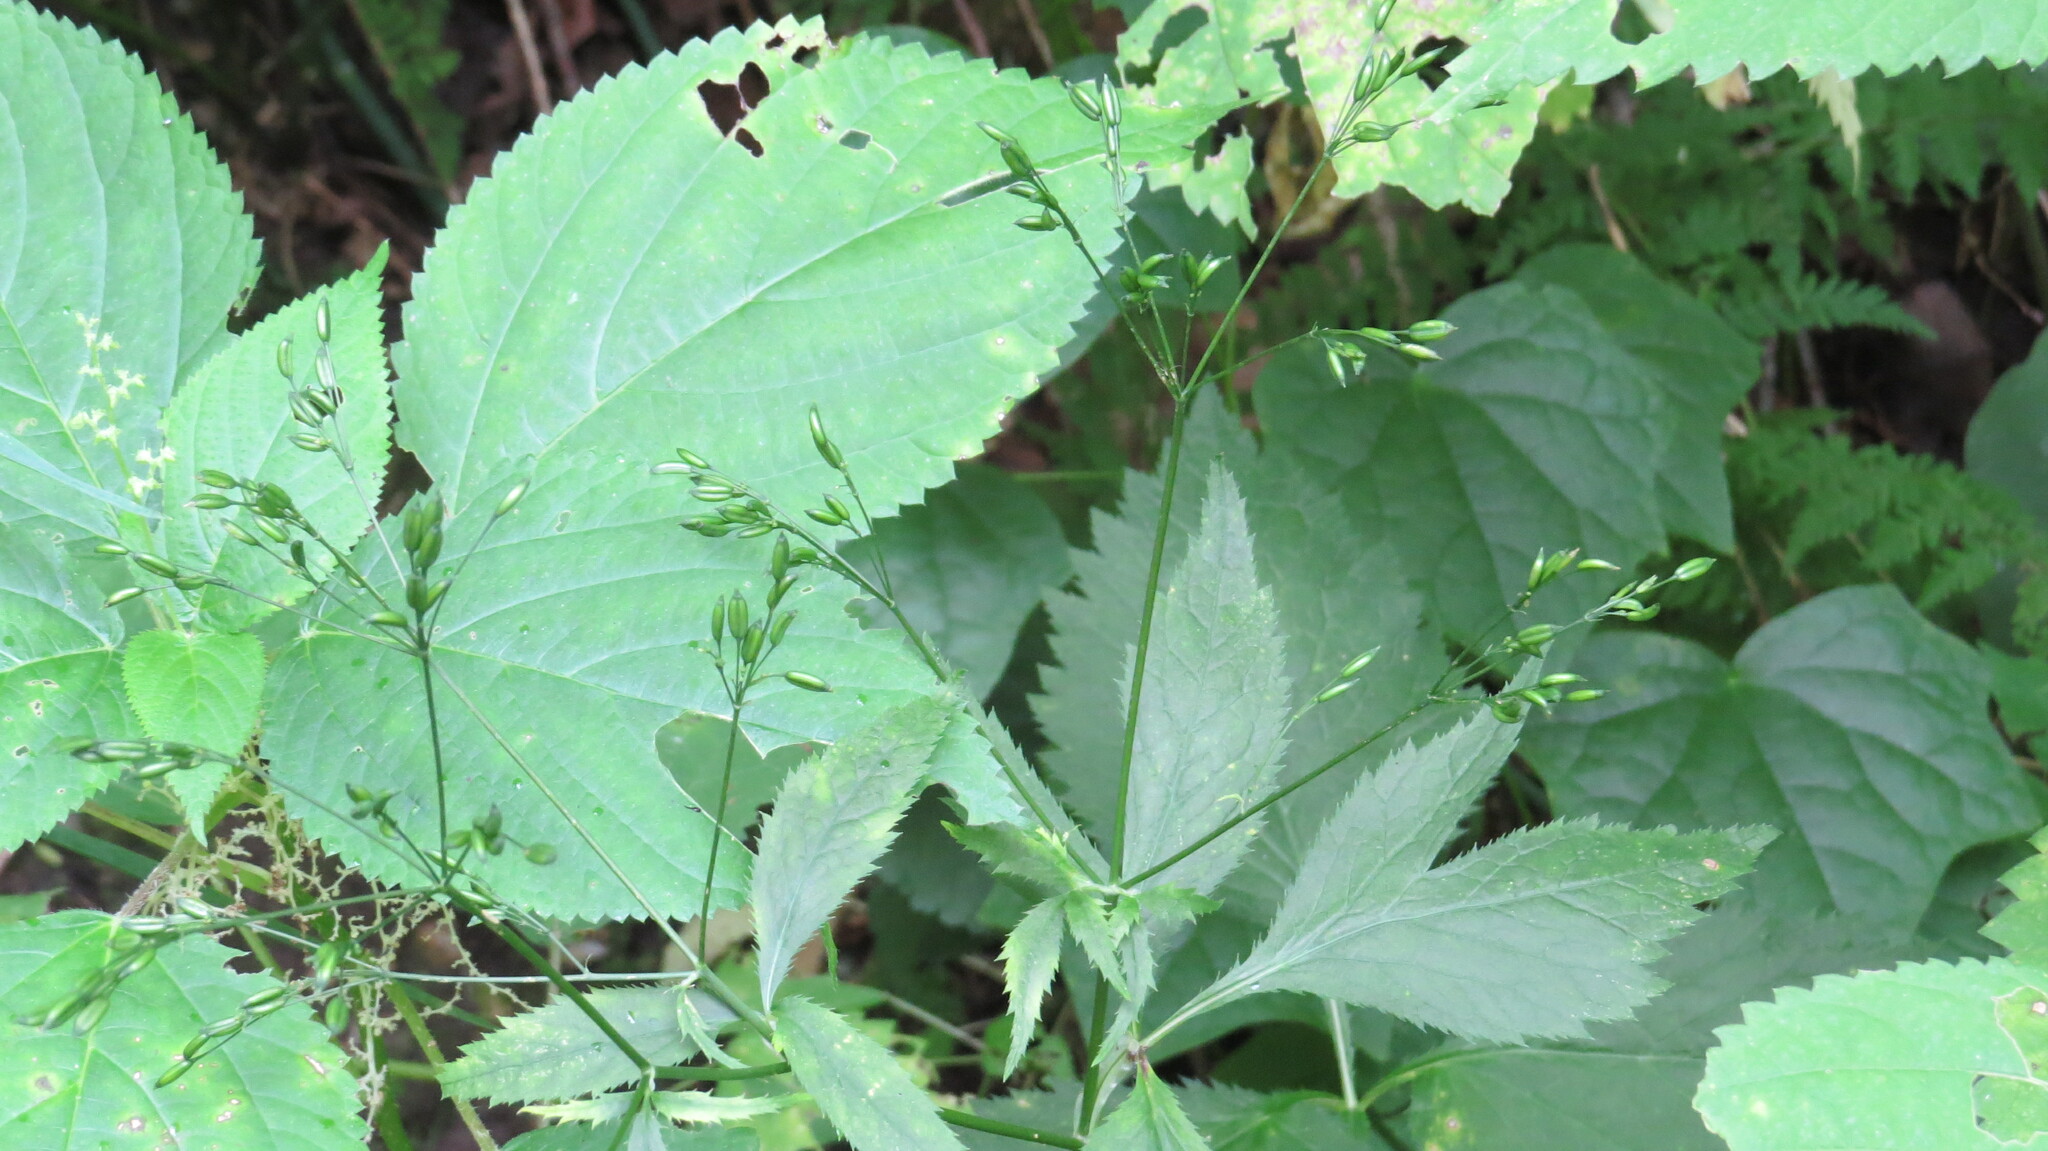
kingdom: Plantae
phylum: Tracheophyta
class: Magnoliopsida
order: Apiales
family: Apiaceae
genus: Cryptotaenia
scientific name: Cryptotaenia canadensis
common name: Honewort
